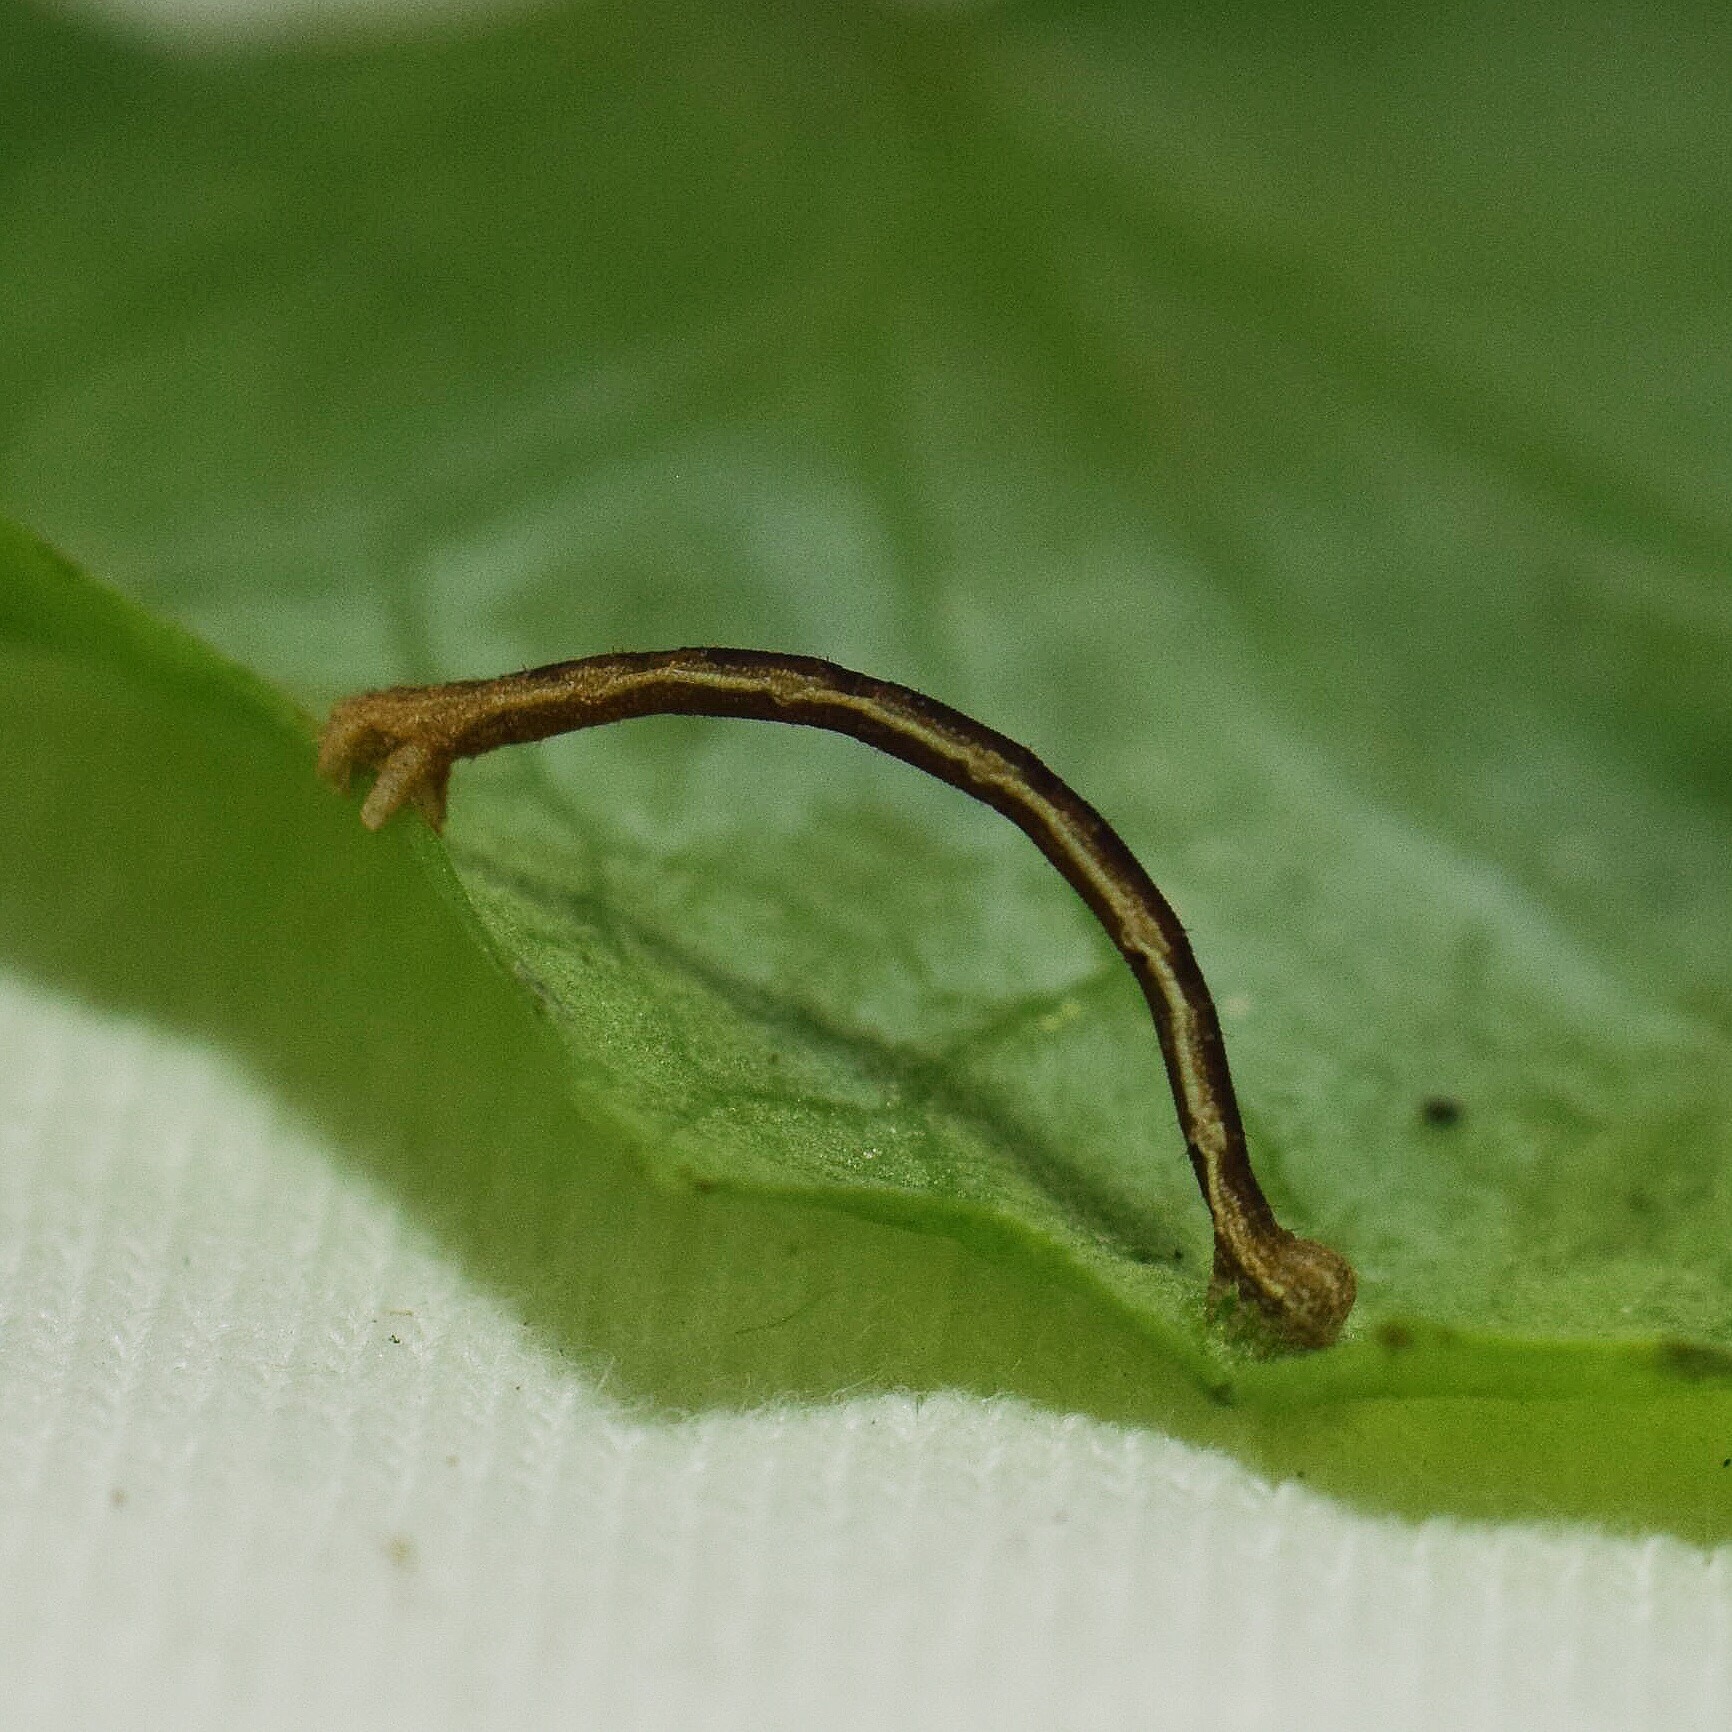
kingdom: Animalia
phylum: Arthropoda
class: Insecta
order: Lepidoptera
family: Geometridae
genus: Scopula
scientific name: Scopula nigrinotata
